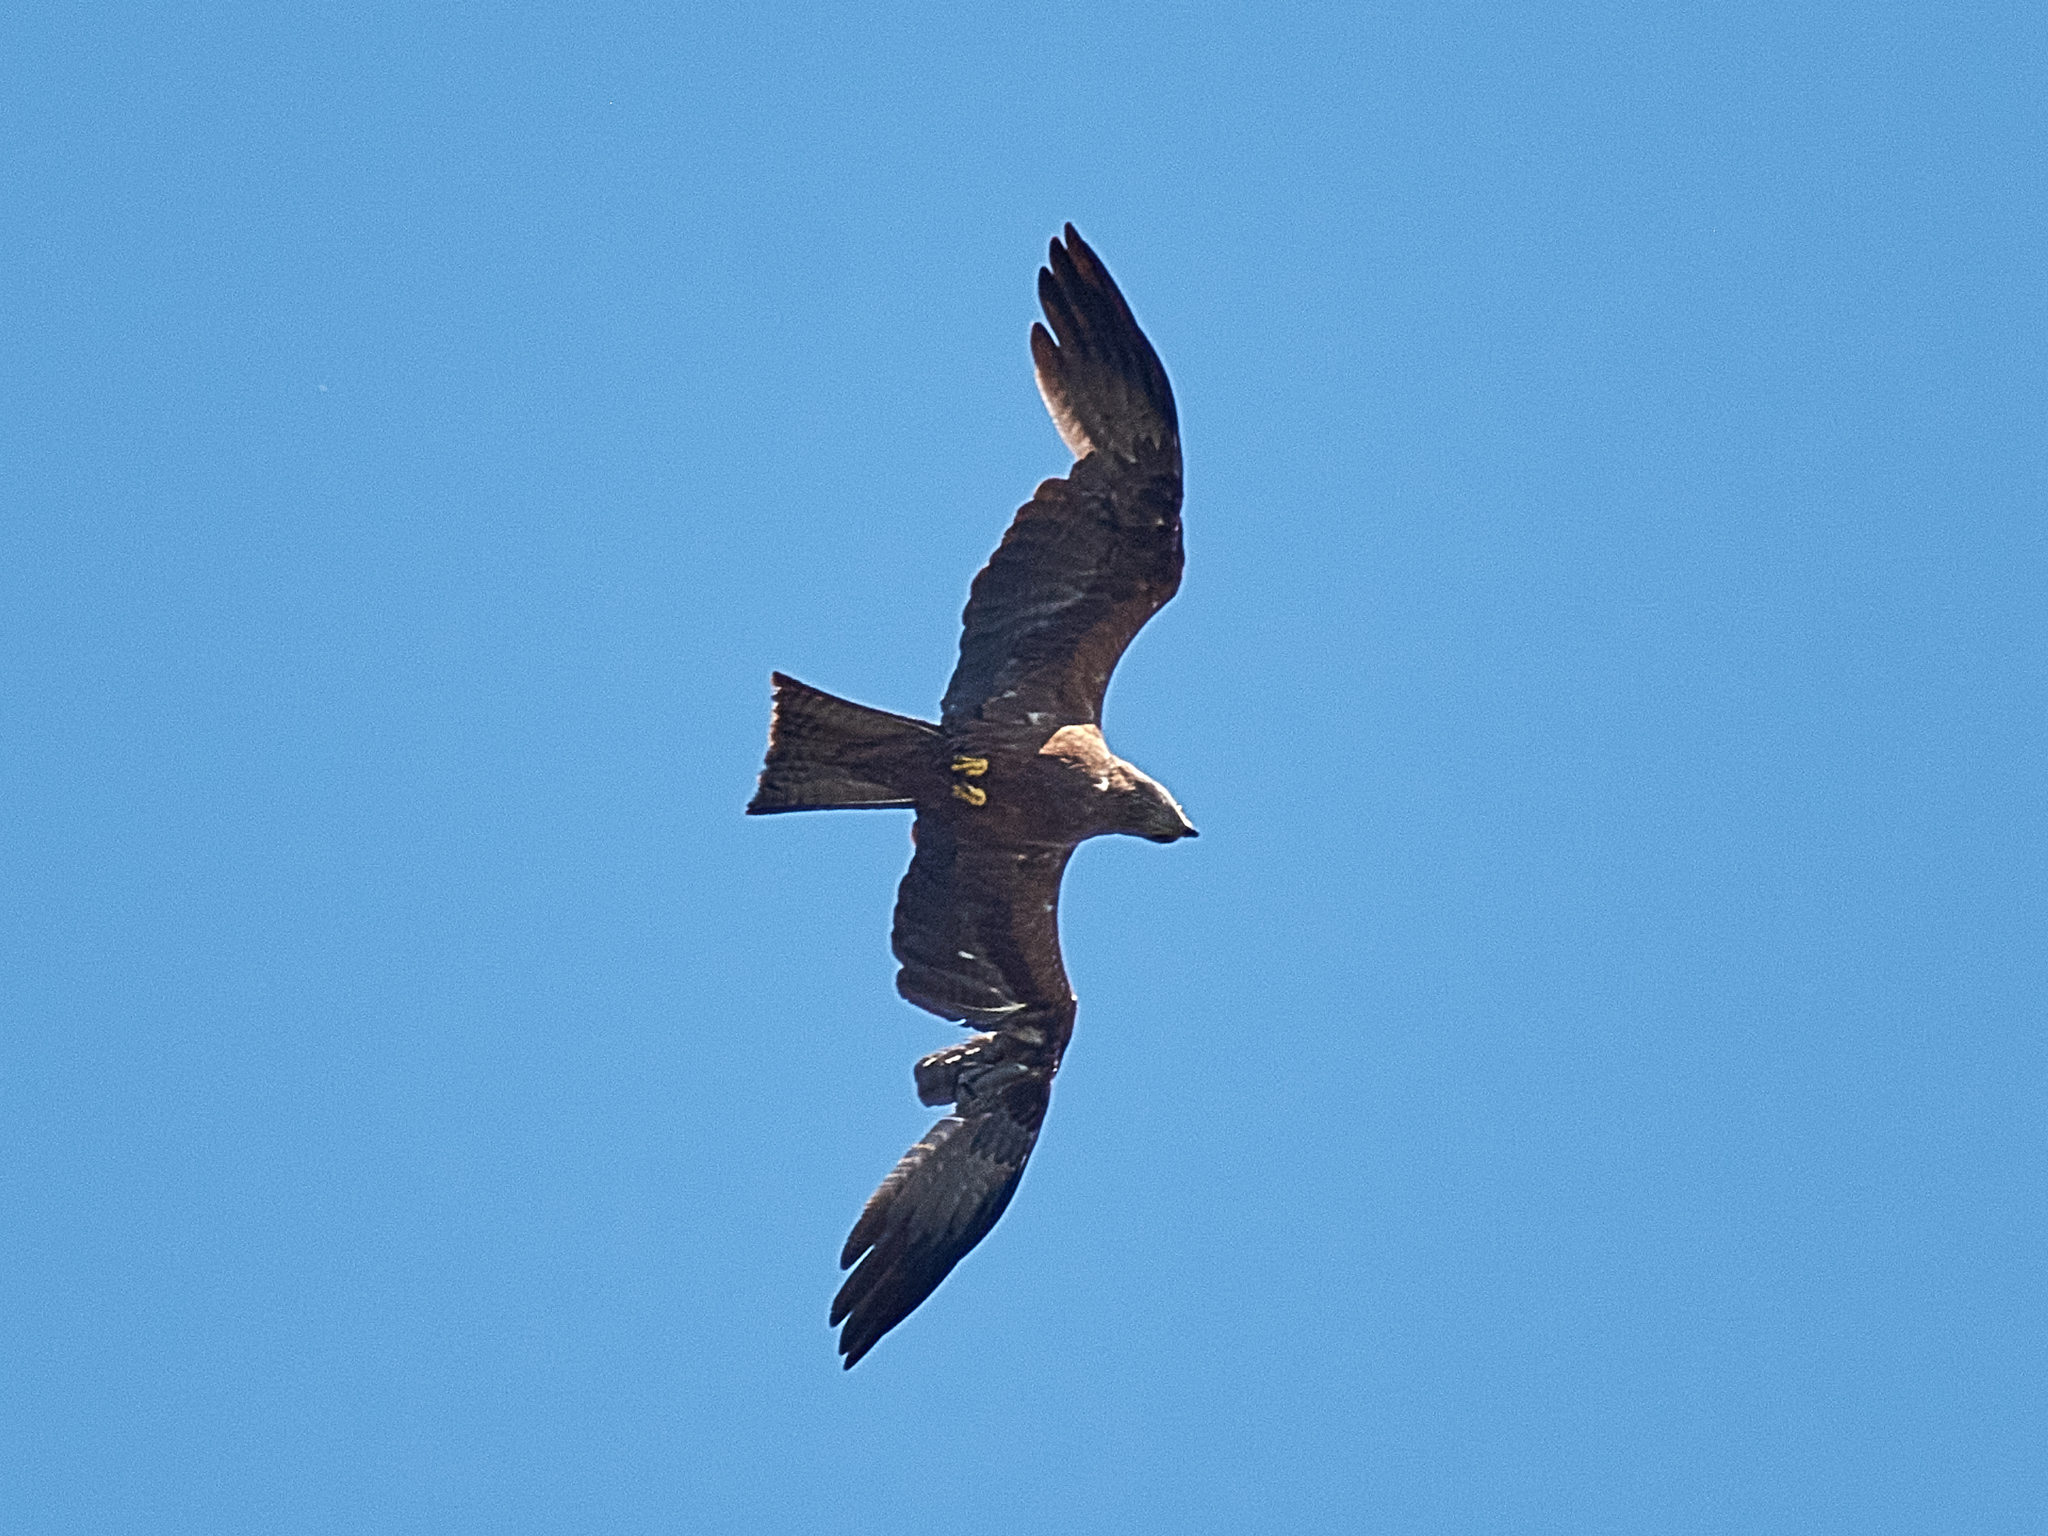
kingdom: Animalia
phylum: Chordata
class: Aves
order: Accipitriformes
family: Accipitridae
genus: Milvus
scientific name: Milvus migrans
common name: Black kite
